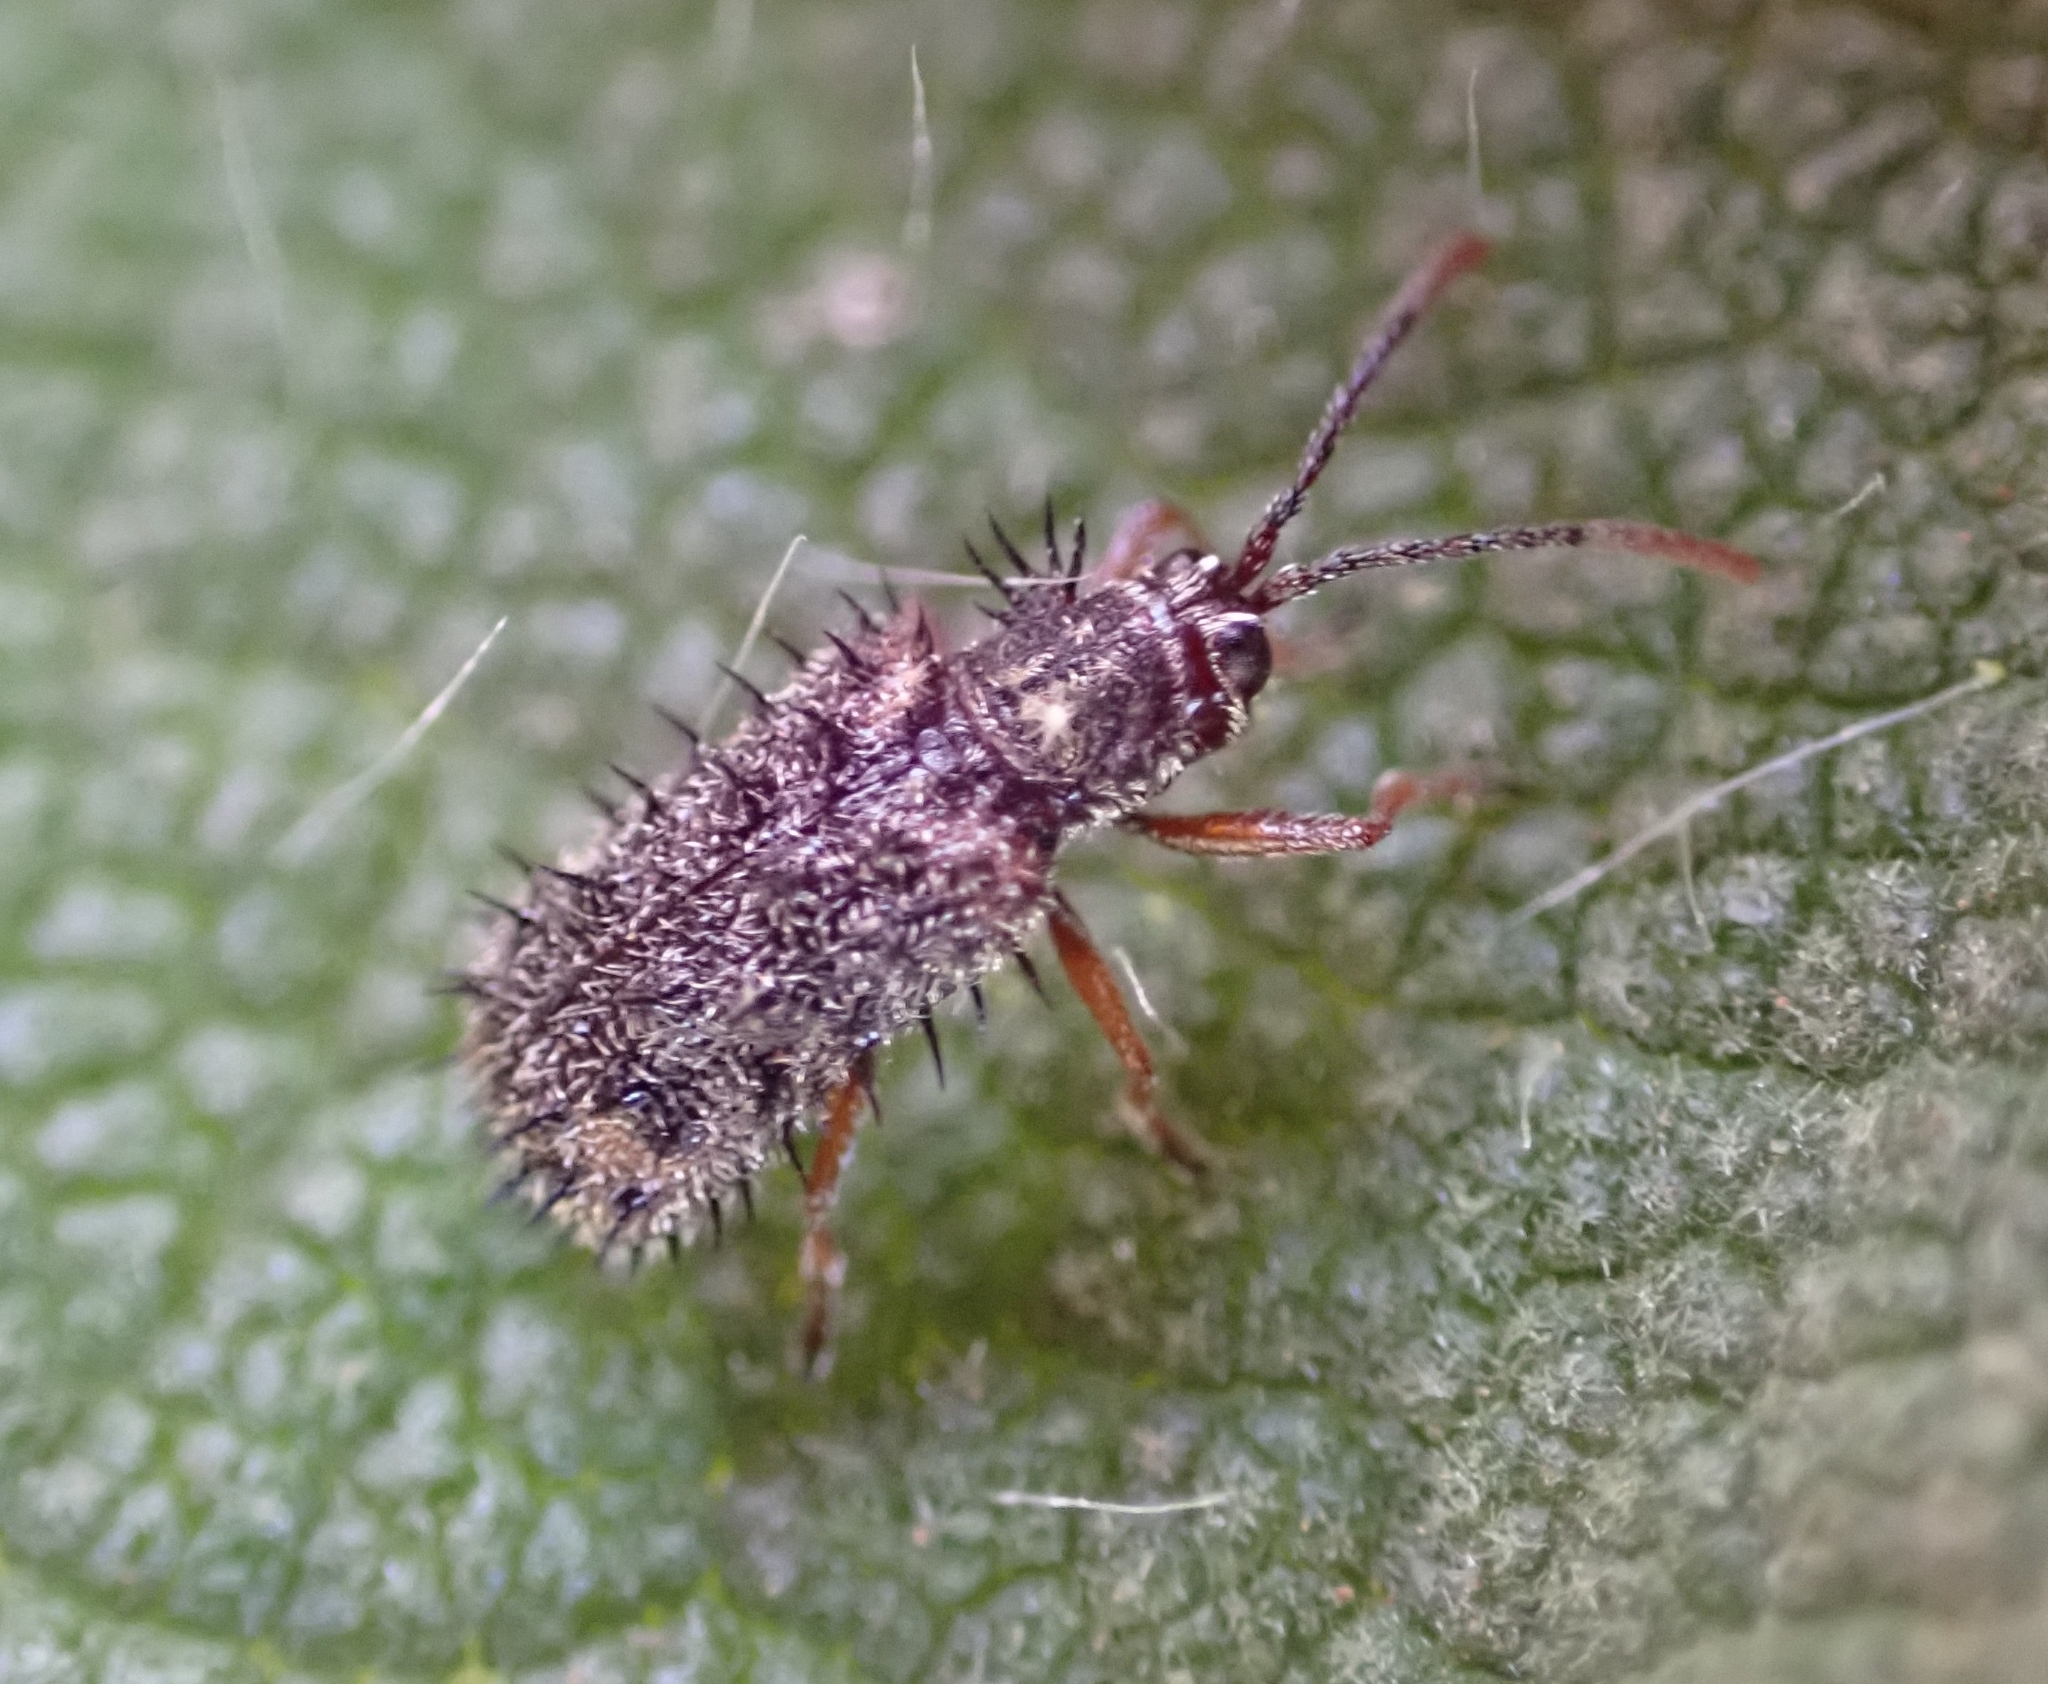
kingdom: Animalia
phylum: Arthropoda
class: Insecta
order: Coleoptera
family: Chrysomelidae
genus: Dicladispa
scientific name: Dicladispa occator
